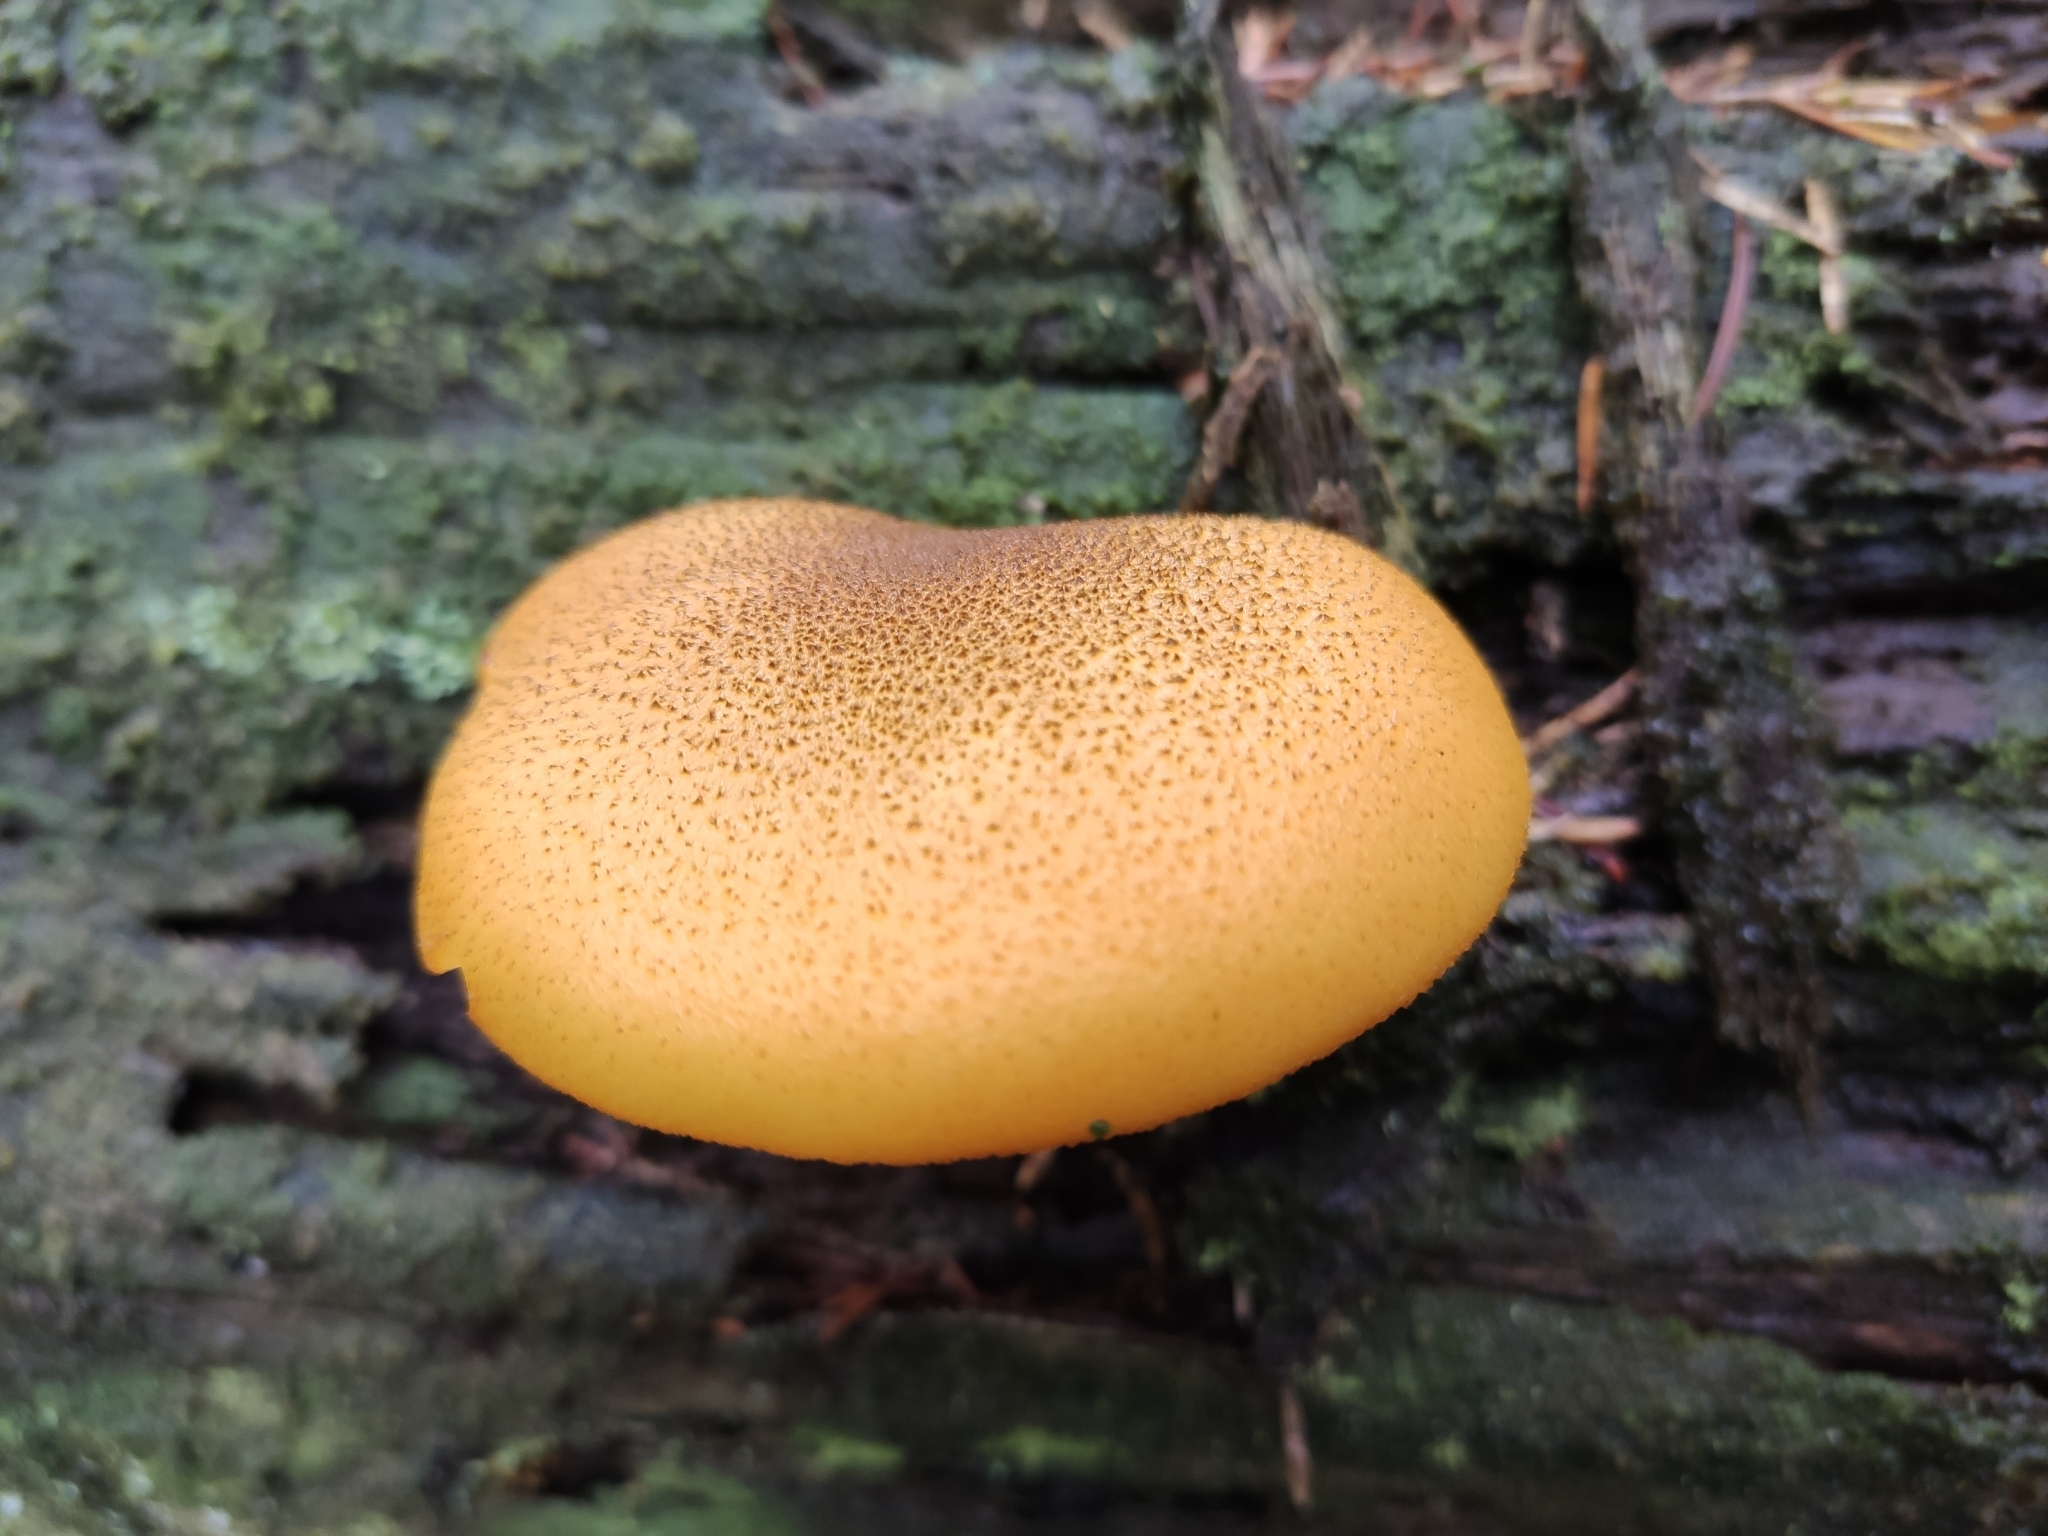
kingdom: Fungi
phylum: Basidiomycota
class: Agaricomycetes
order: Agaricales
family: Tricholomataceae
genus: Tricholomopsis
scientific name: Tricholomopsis decora
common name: Prunes and custard
